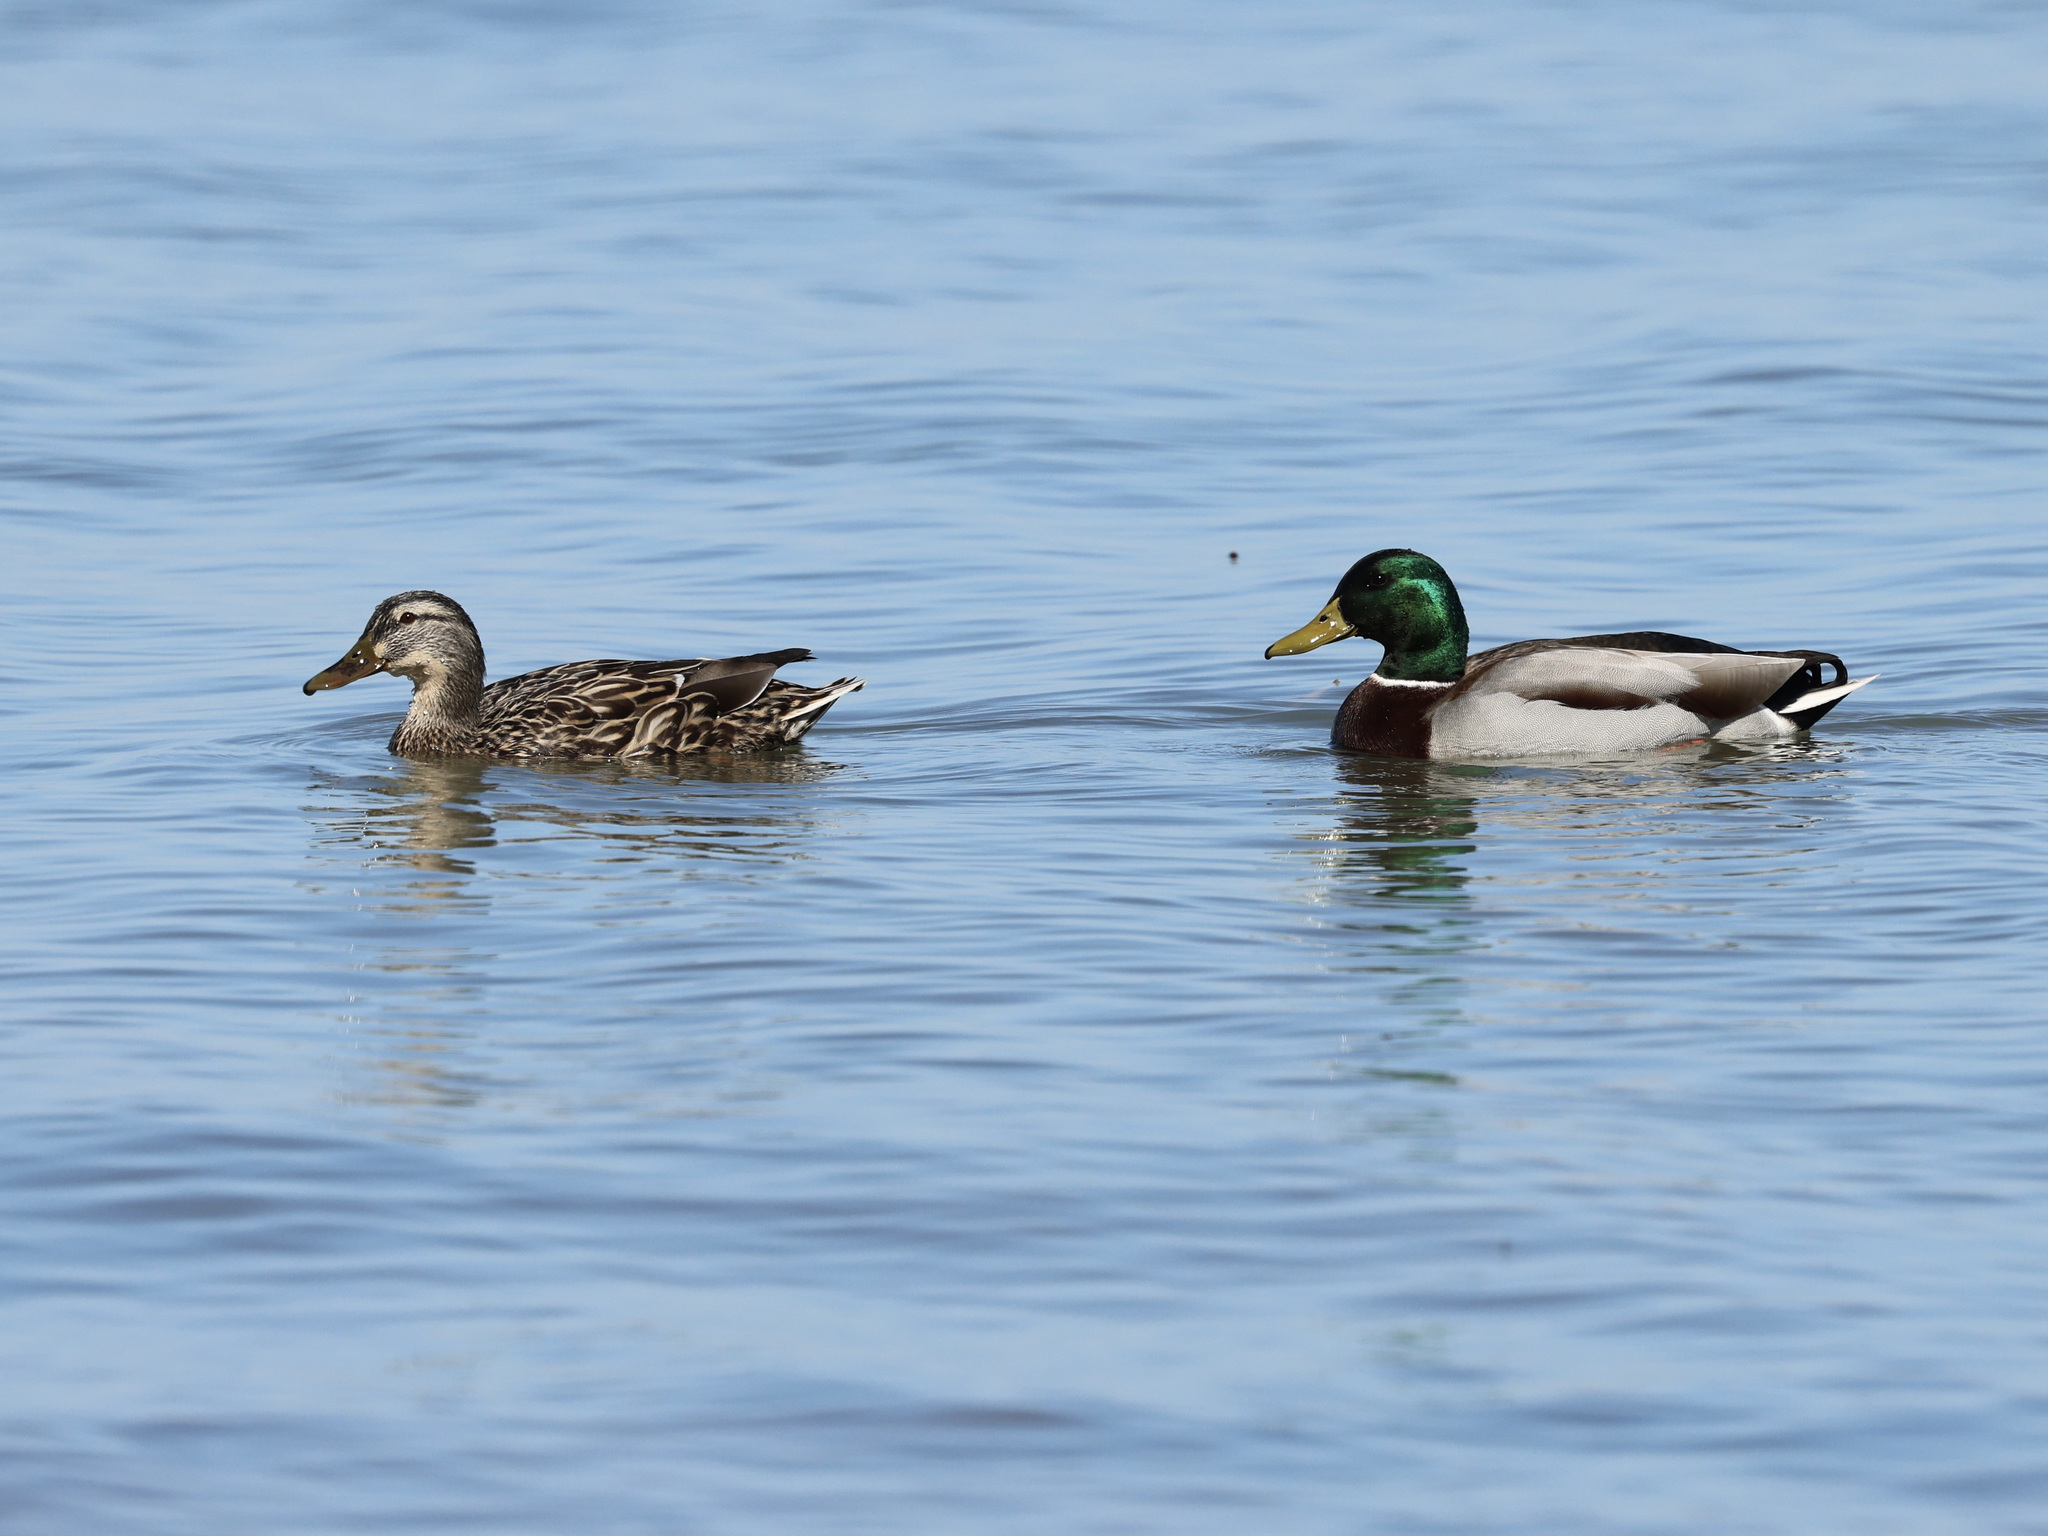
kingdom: Animalia
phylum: Chordata
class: Aves
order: Anseriformes
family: Anatidae
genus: Anas
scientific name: Anas platyrhynchos
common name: Mallard
